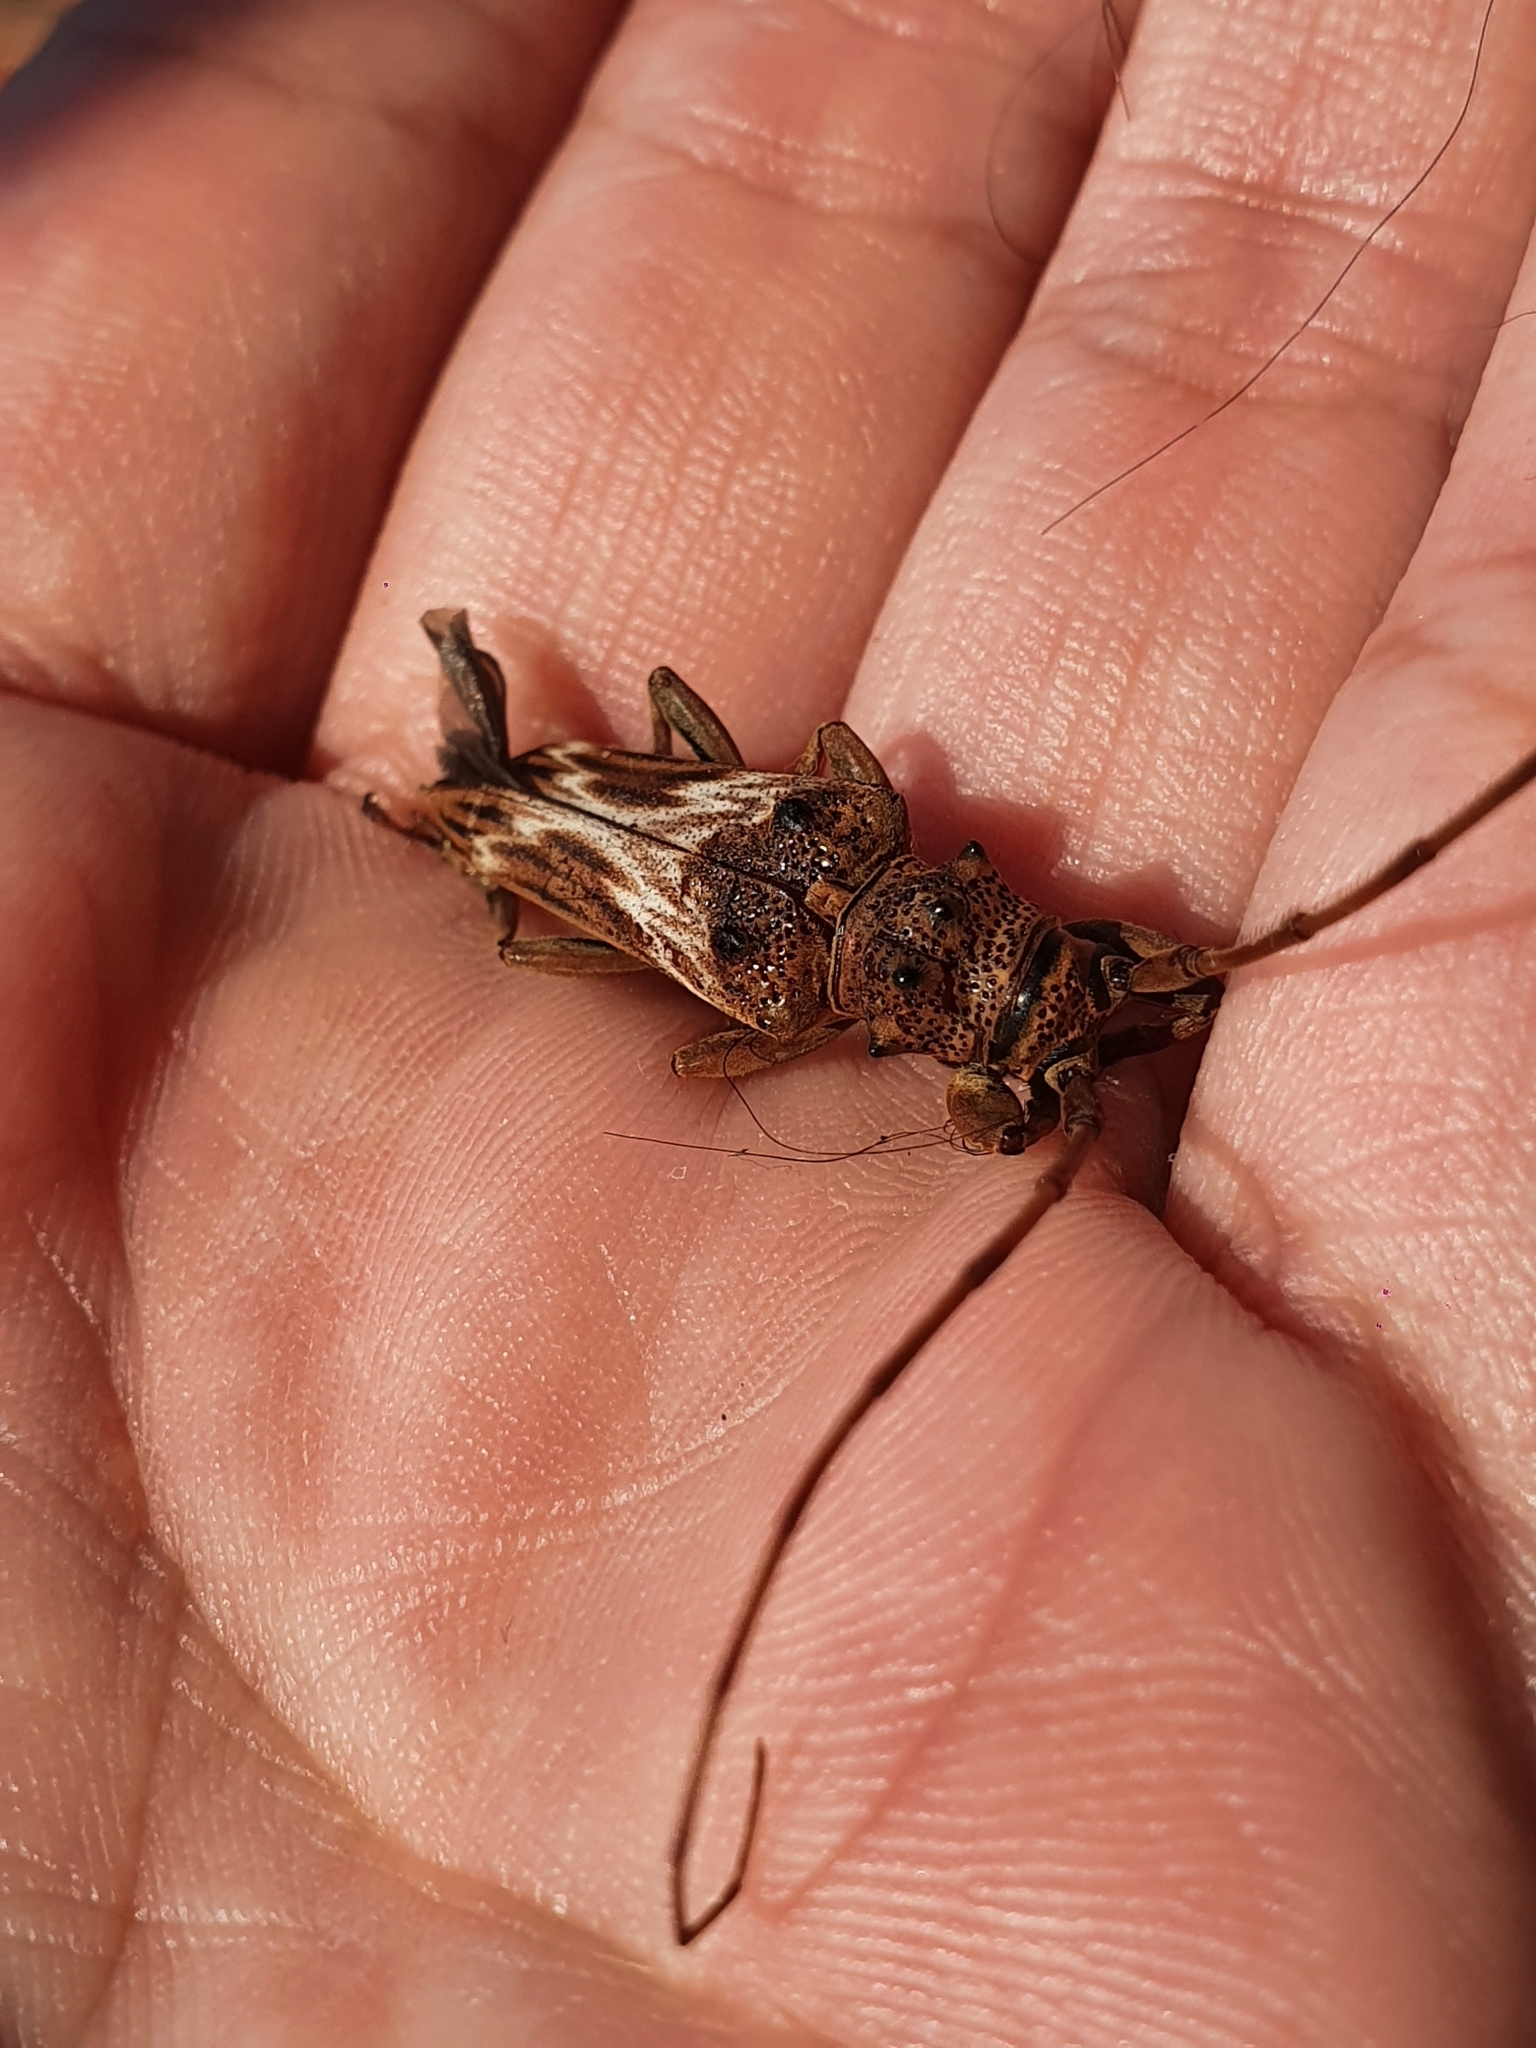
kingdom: Animalia
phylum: Arthropoda
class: Insecta
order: Coleoptera
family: Cerambycidae
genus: Rhaphiptera
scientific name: Rhaphiptera nodifera
